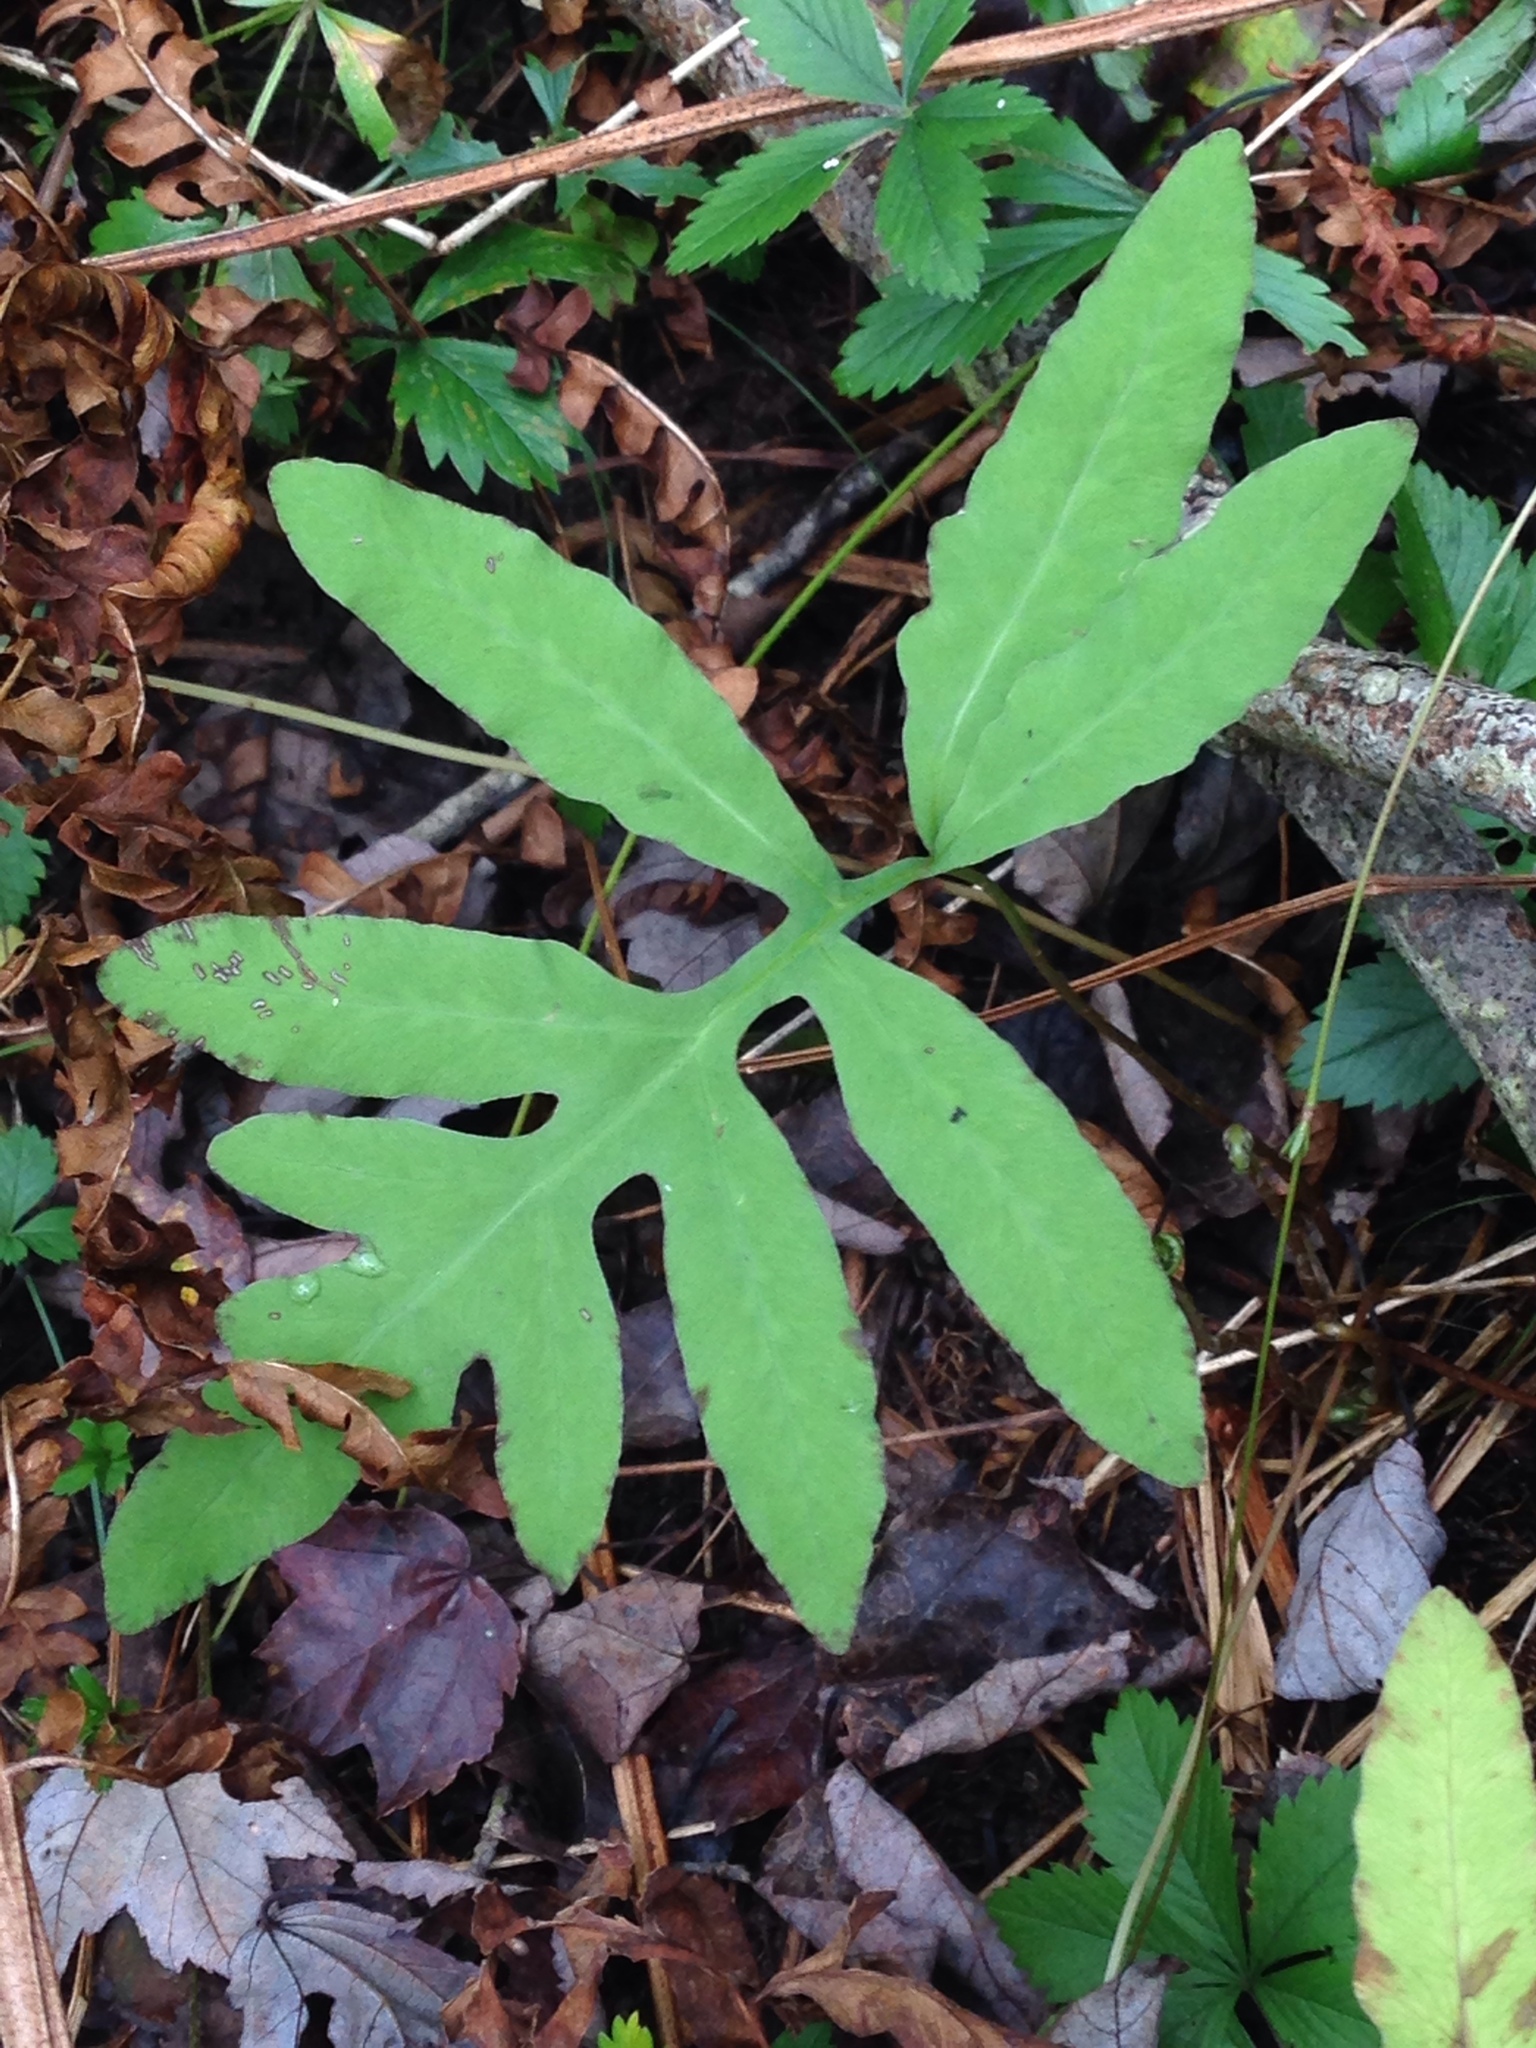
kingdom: Plantae
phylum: Tracheophyta
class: Polypodiopsida
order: Polypodiales
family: Onocleaceae
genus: Onoclea
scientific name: Onoclea sensibilis
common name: Sensitive fern
